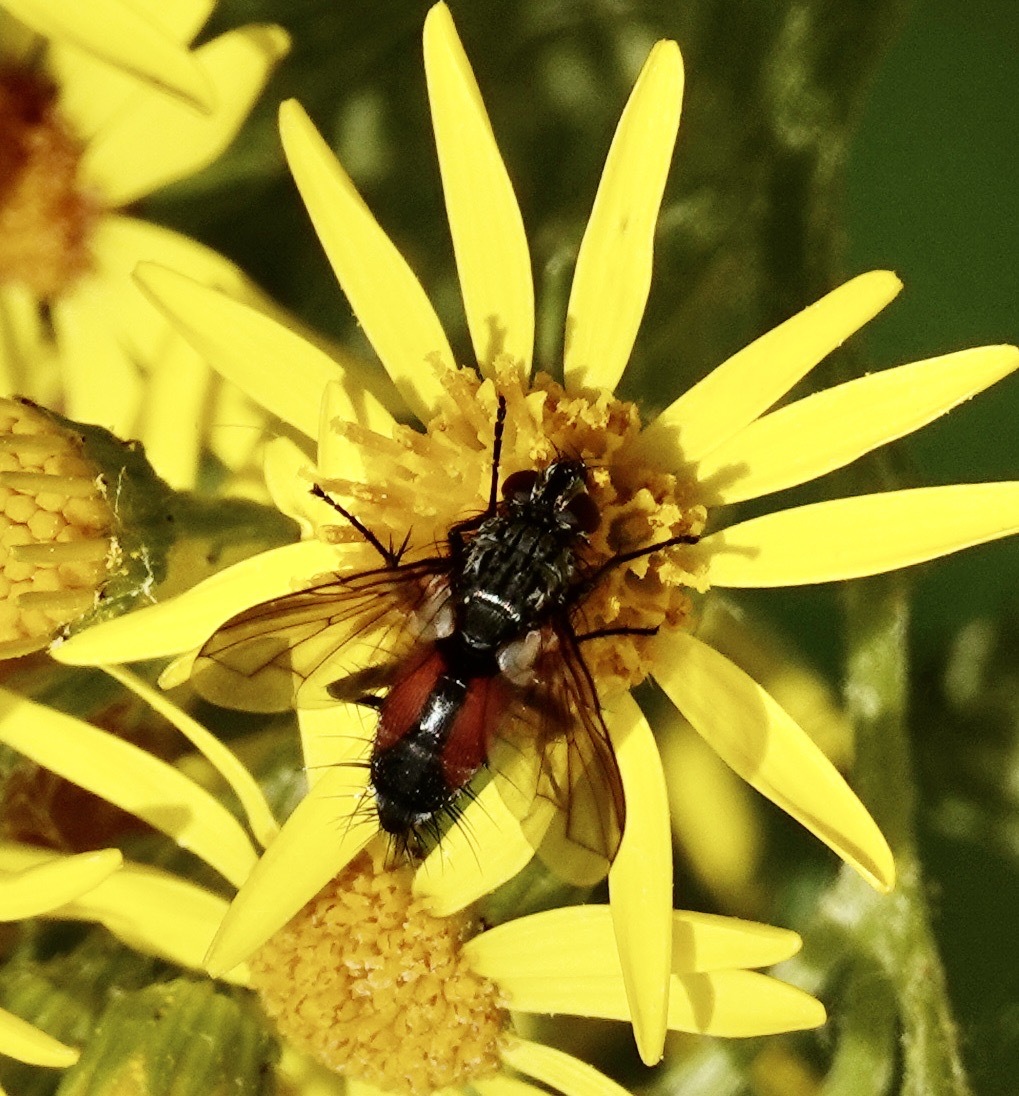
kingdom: Animalia
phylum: Arthropoda
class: Insecta
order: Diptera
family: Tachinidae
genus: Eriothrix
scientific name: Eriothrix rufomaculatus
